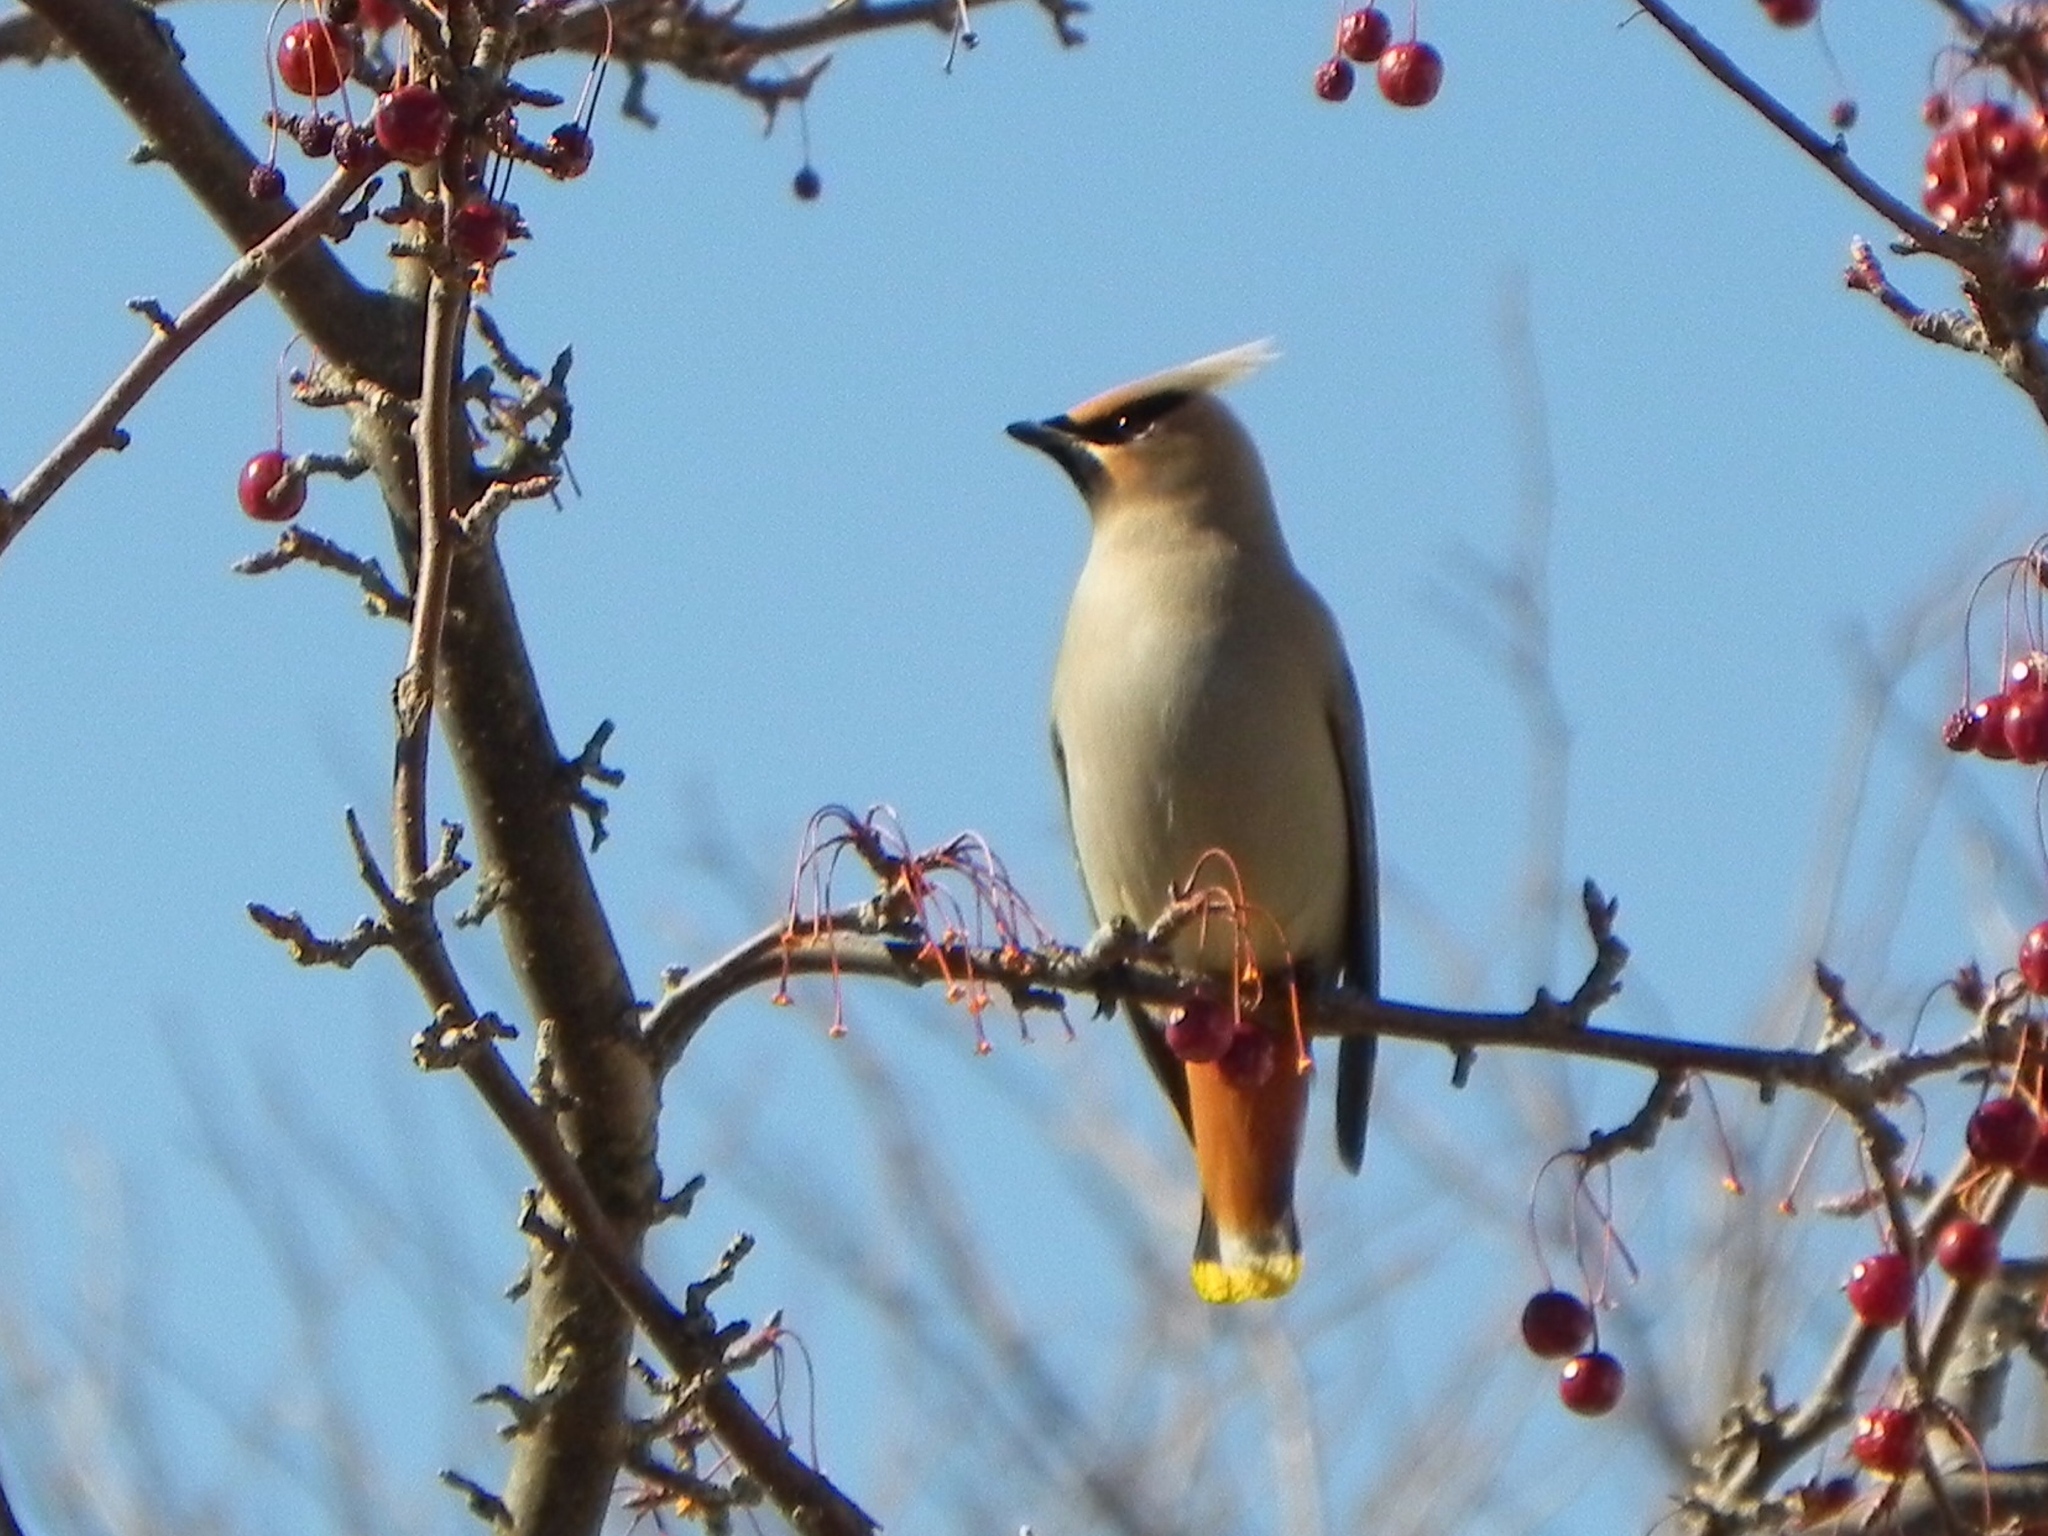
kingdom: Animalia
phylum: Chordata
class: Aves
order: Passeriformes
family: Bombycillidae
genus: Bombycilla
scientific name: Bombycilla garrulus
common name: Bohemian waxwing
